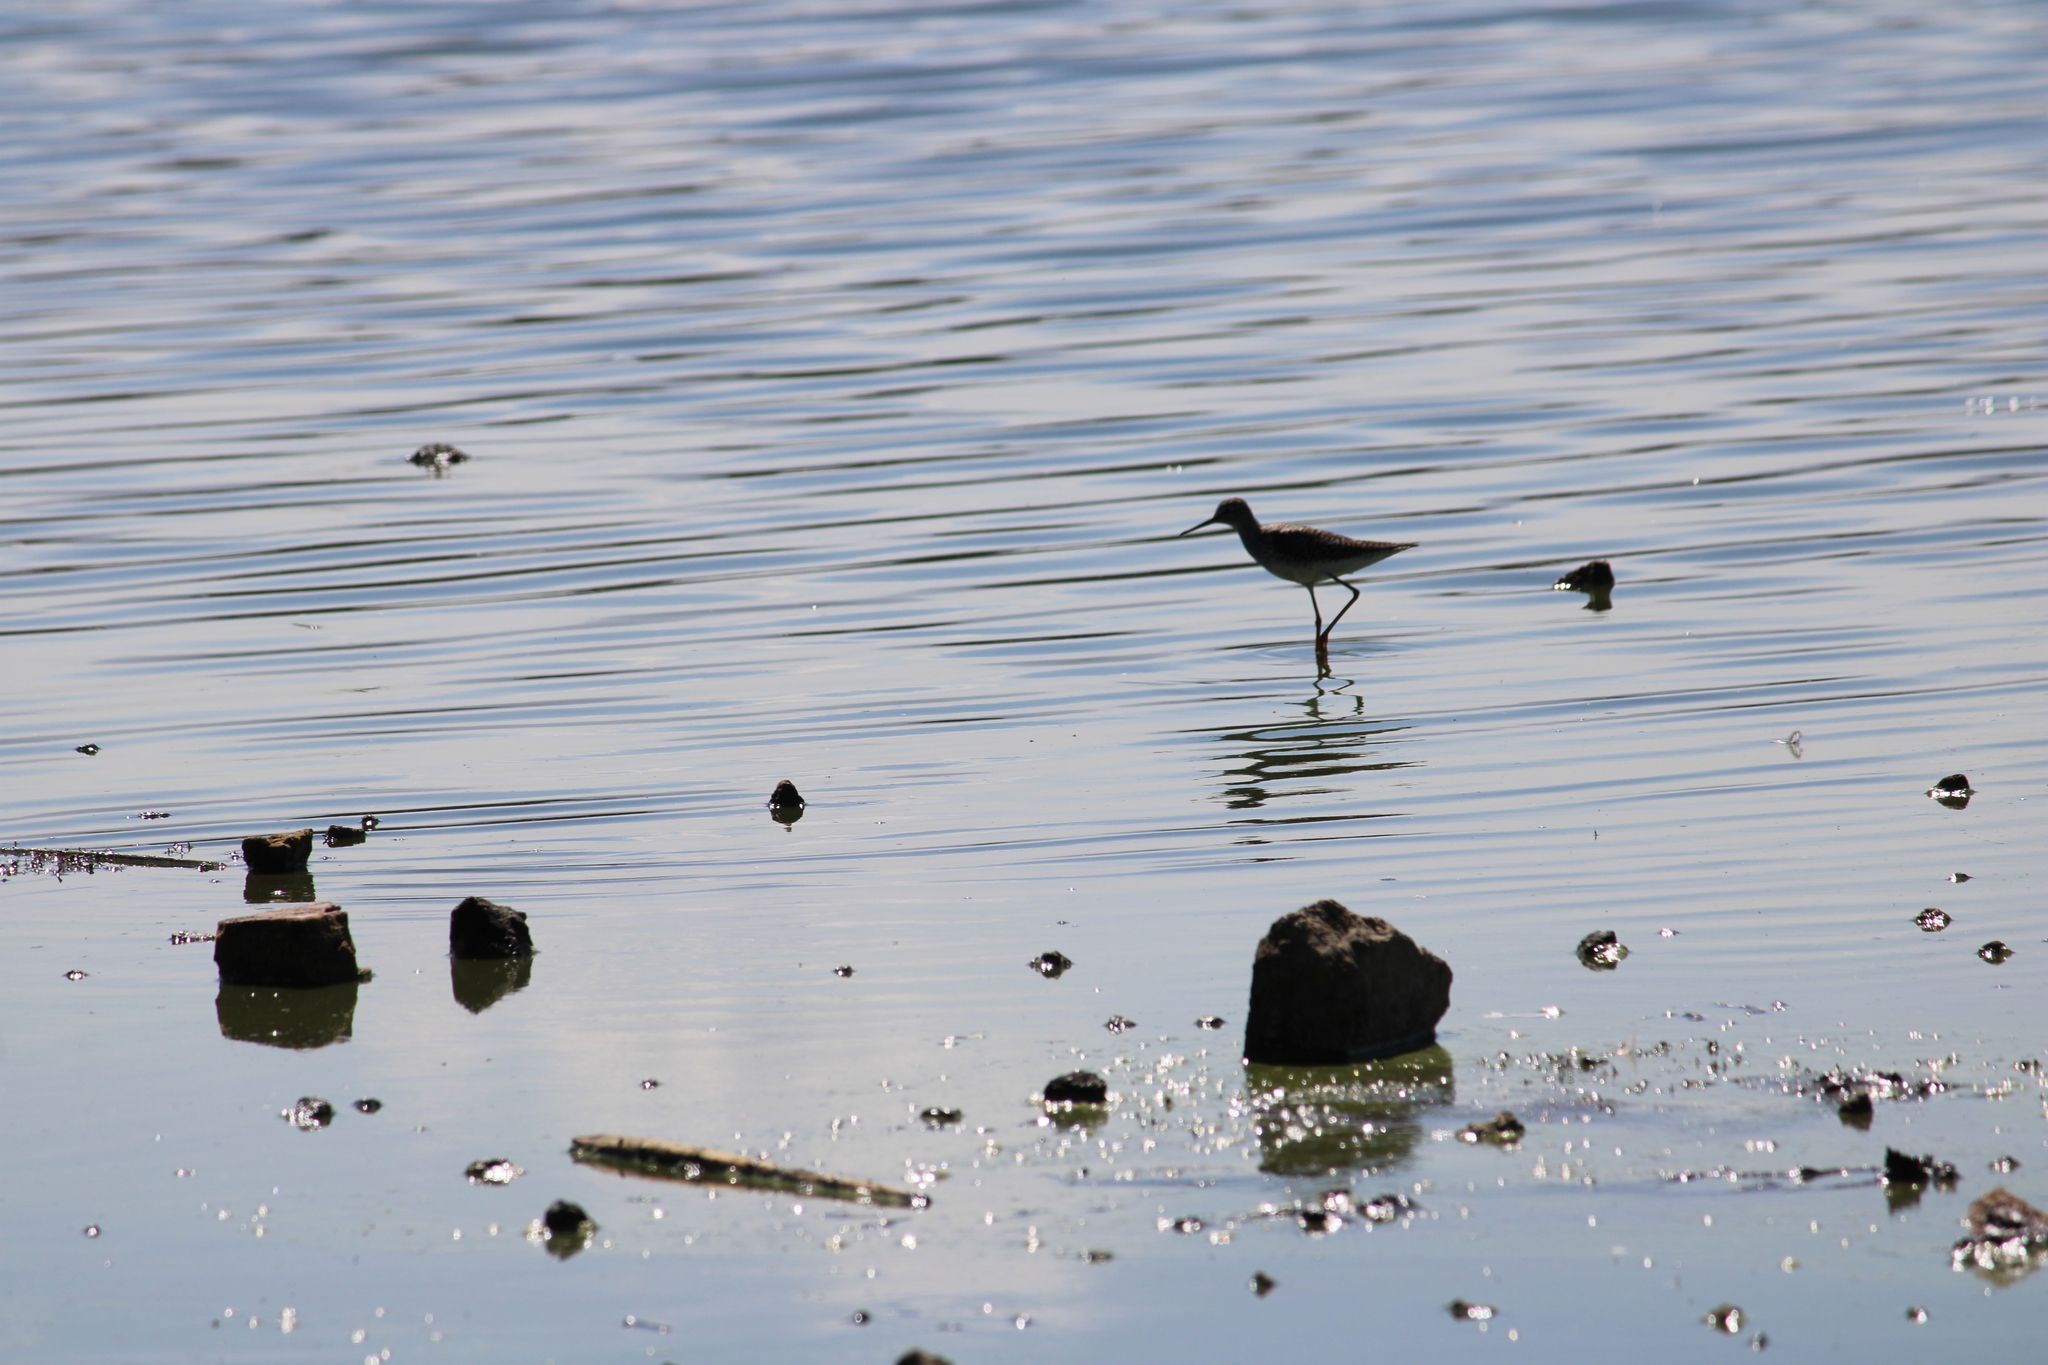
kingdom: Animalia
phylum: Chordata
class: Aves
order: Charadriiformes
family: Scolopacidae
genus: Tringa
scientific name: Tringa flavipes
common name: Lesser yellowlegs
